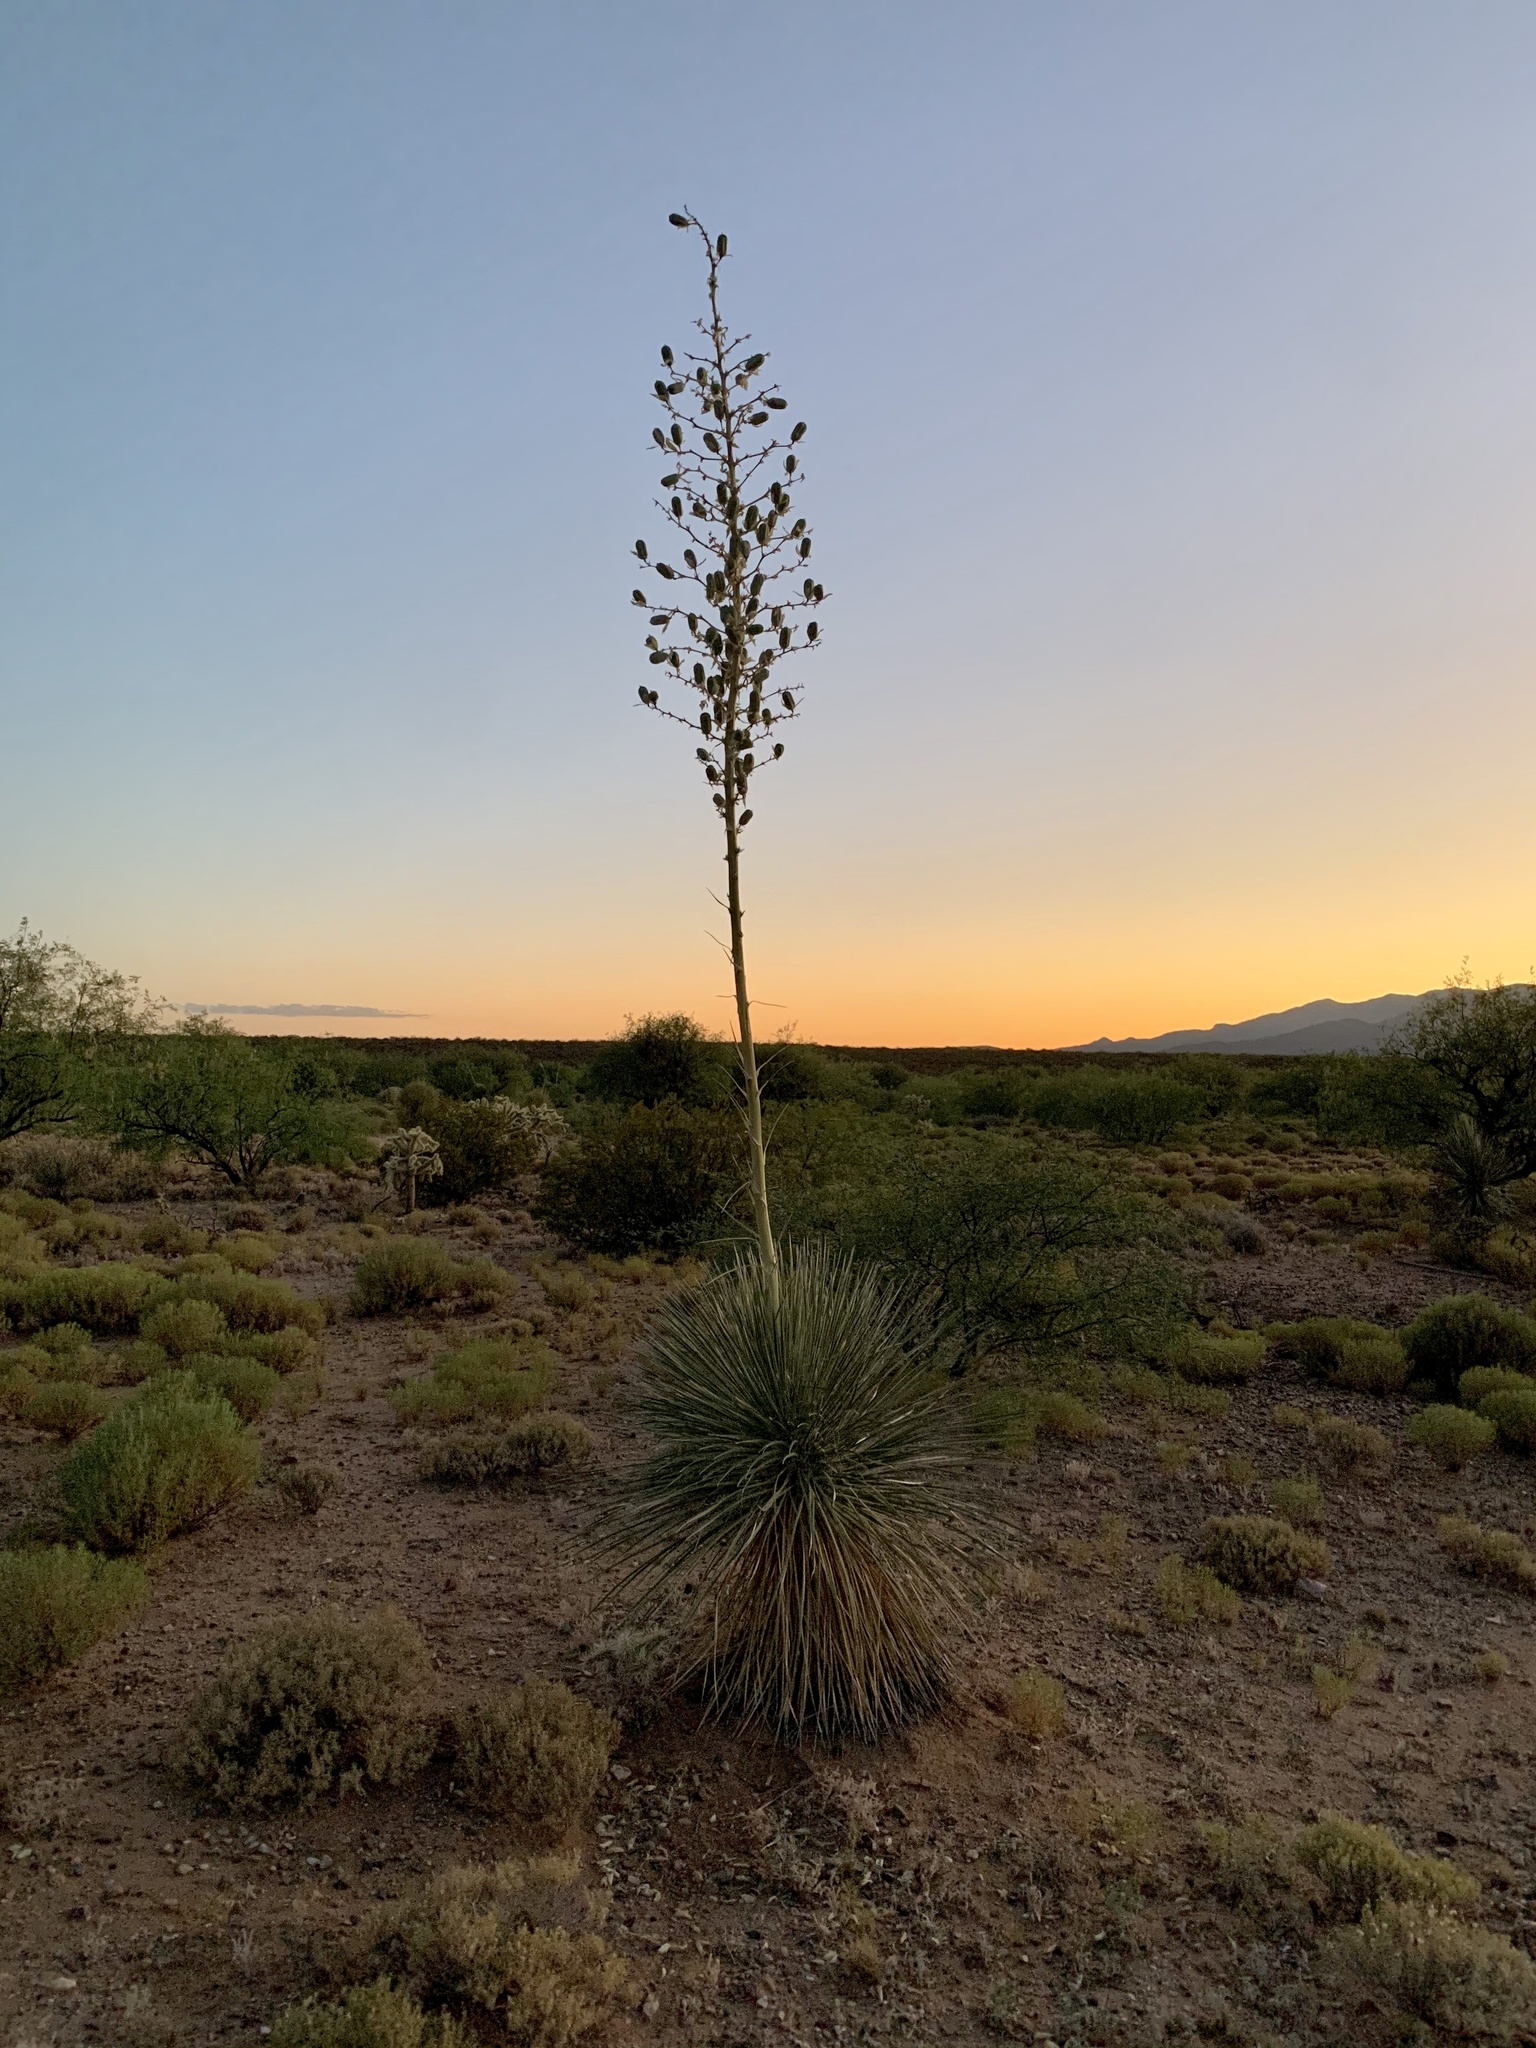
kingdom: Plantae
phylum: Tracheophyta
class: Liliopsida
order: Asparagales
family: Asparagaceae
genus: Yucca
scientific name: Yucca elata
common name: Palmella
